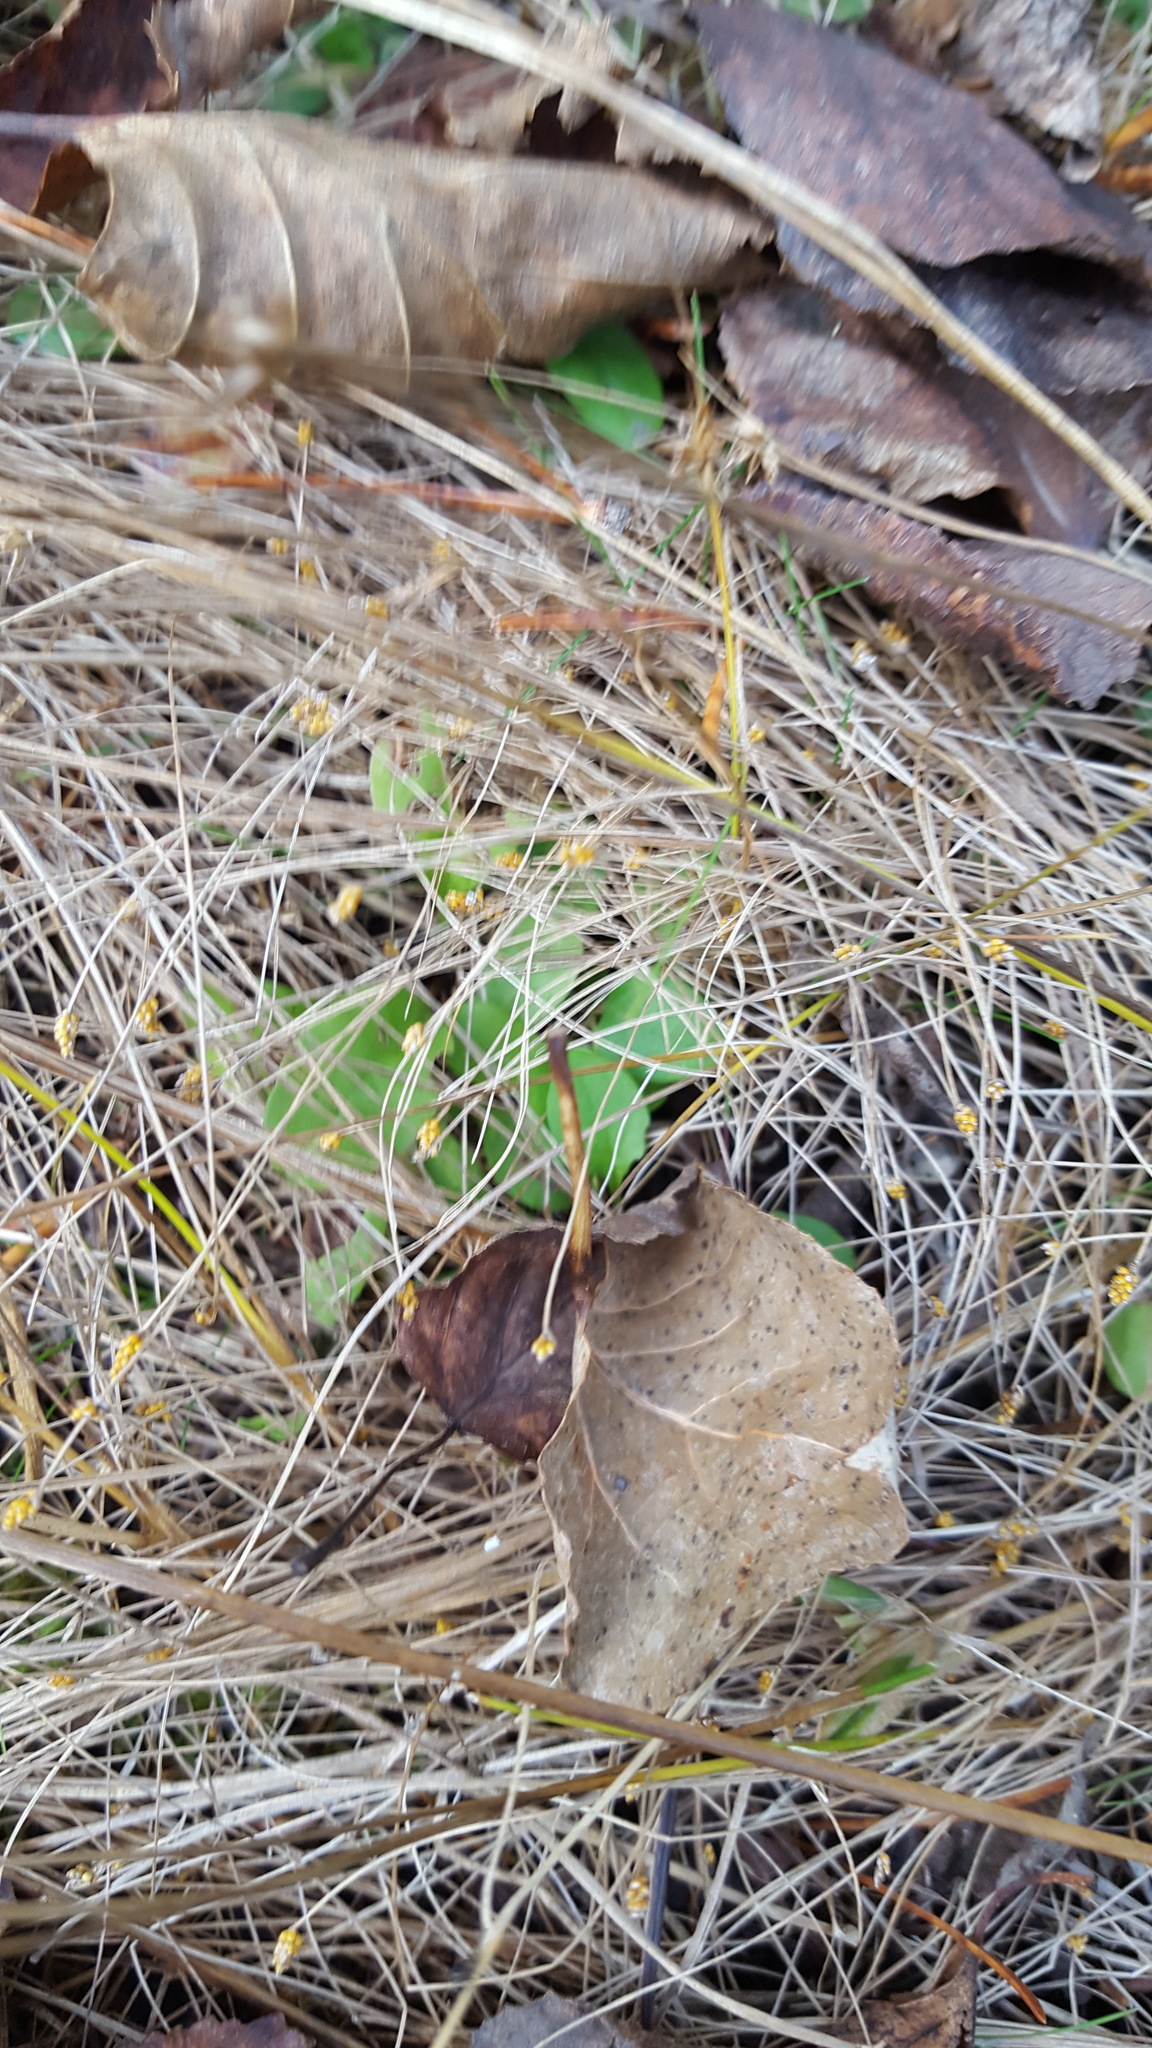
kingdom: Plantae
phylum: Tracheophyta
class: Liliopsida
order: Poales
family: Cyperaceae
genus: Eleocharis
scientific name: Eleocharis nitida
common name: Neat spikerush
